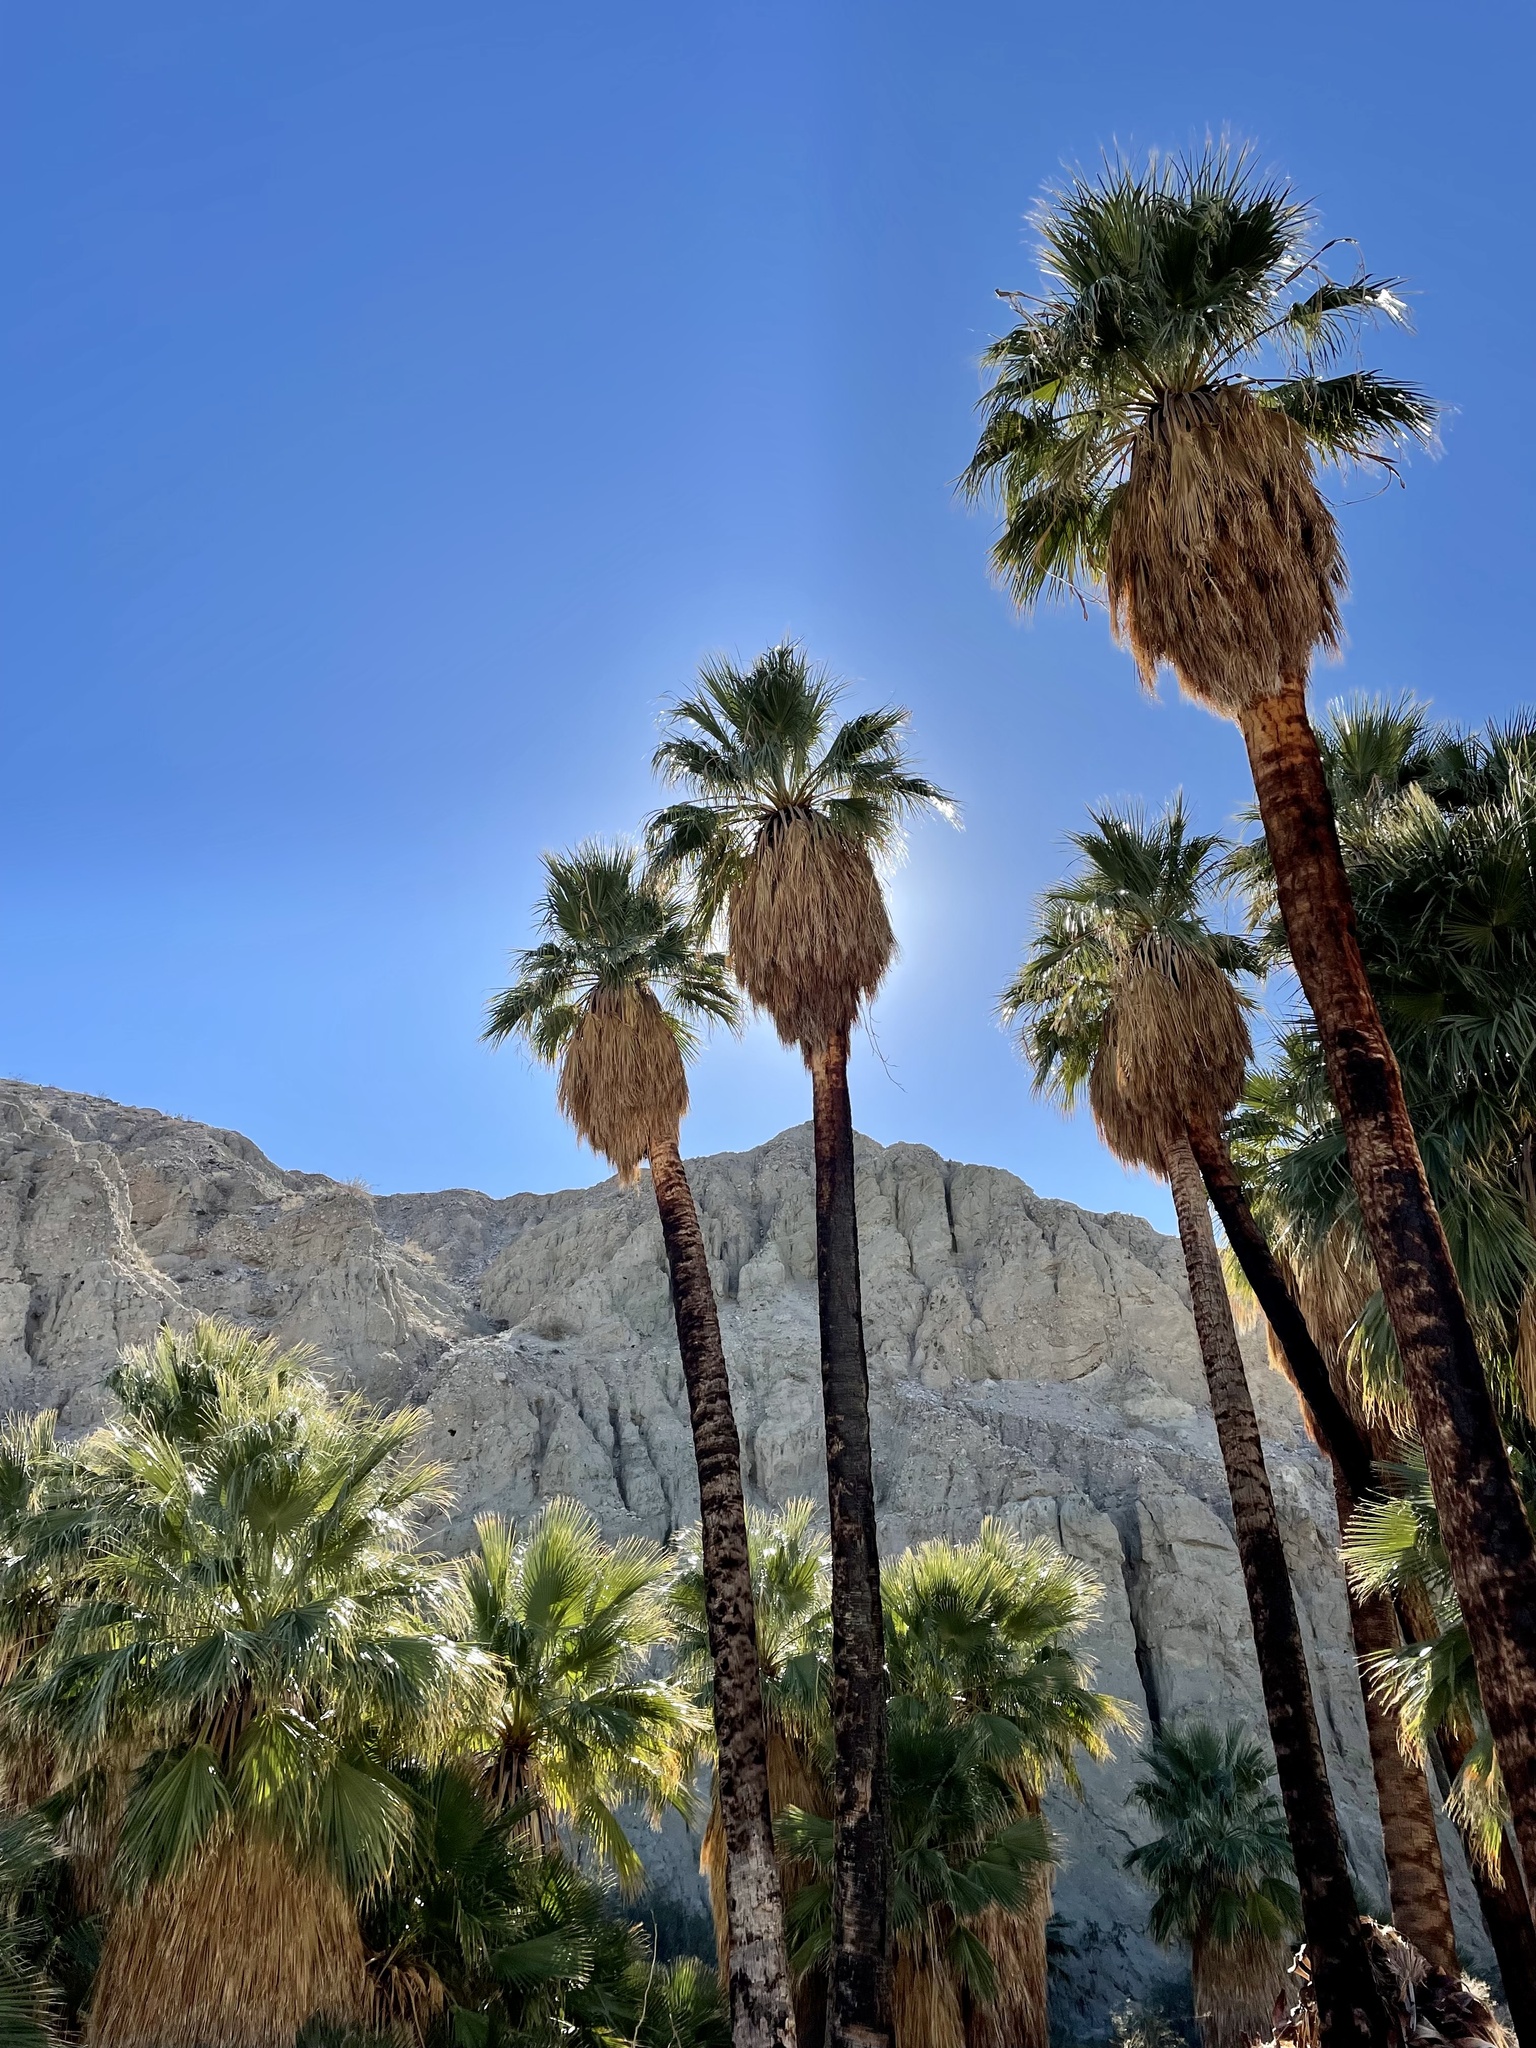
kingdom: Plantae
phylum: Tracheophyta
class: Liliopsida
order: Arecales
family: Arecaceae
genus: Washingtonia
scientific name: Washingtonia filifera
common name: California fan palm
